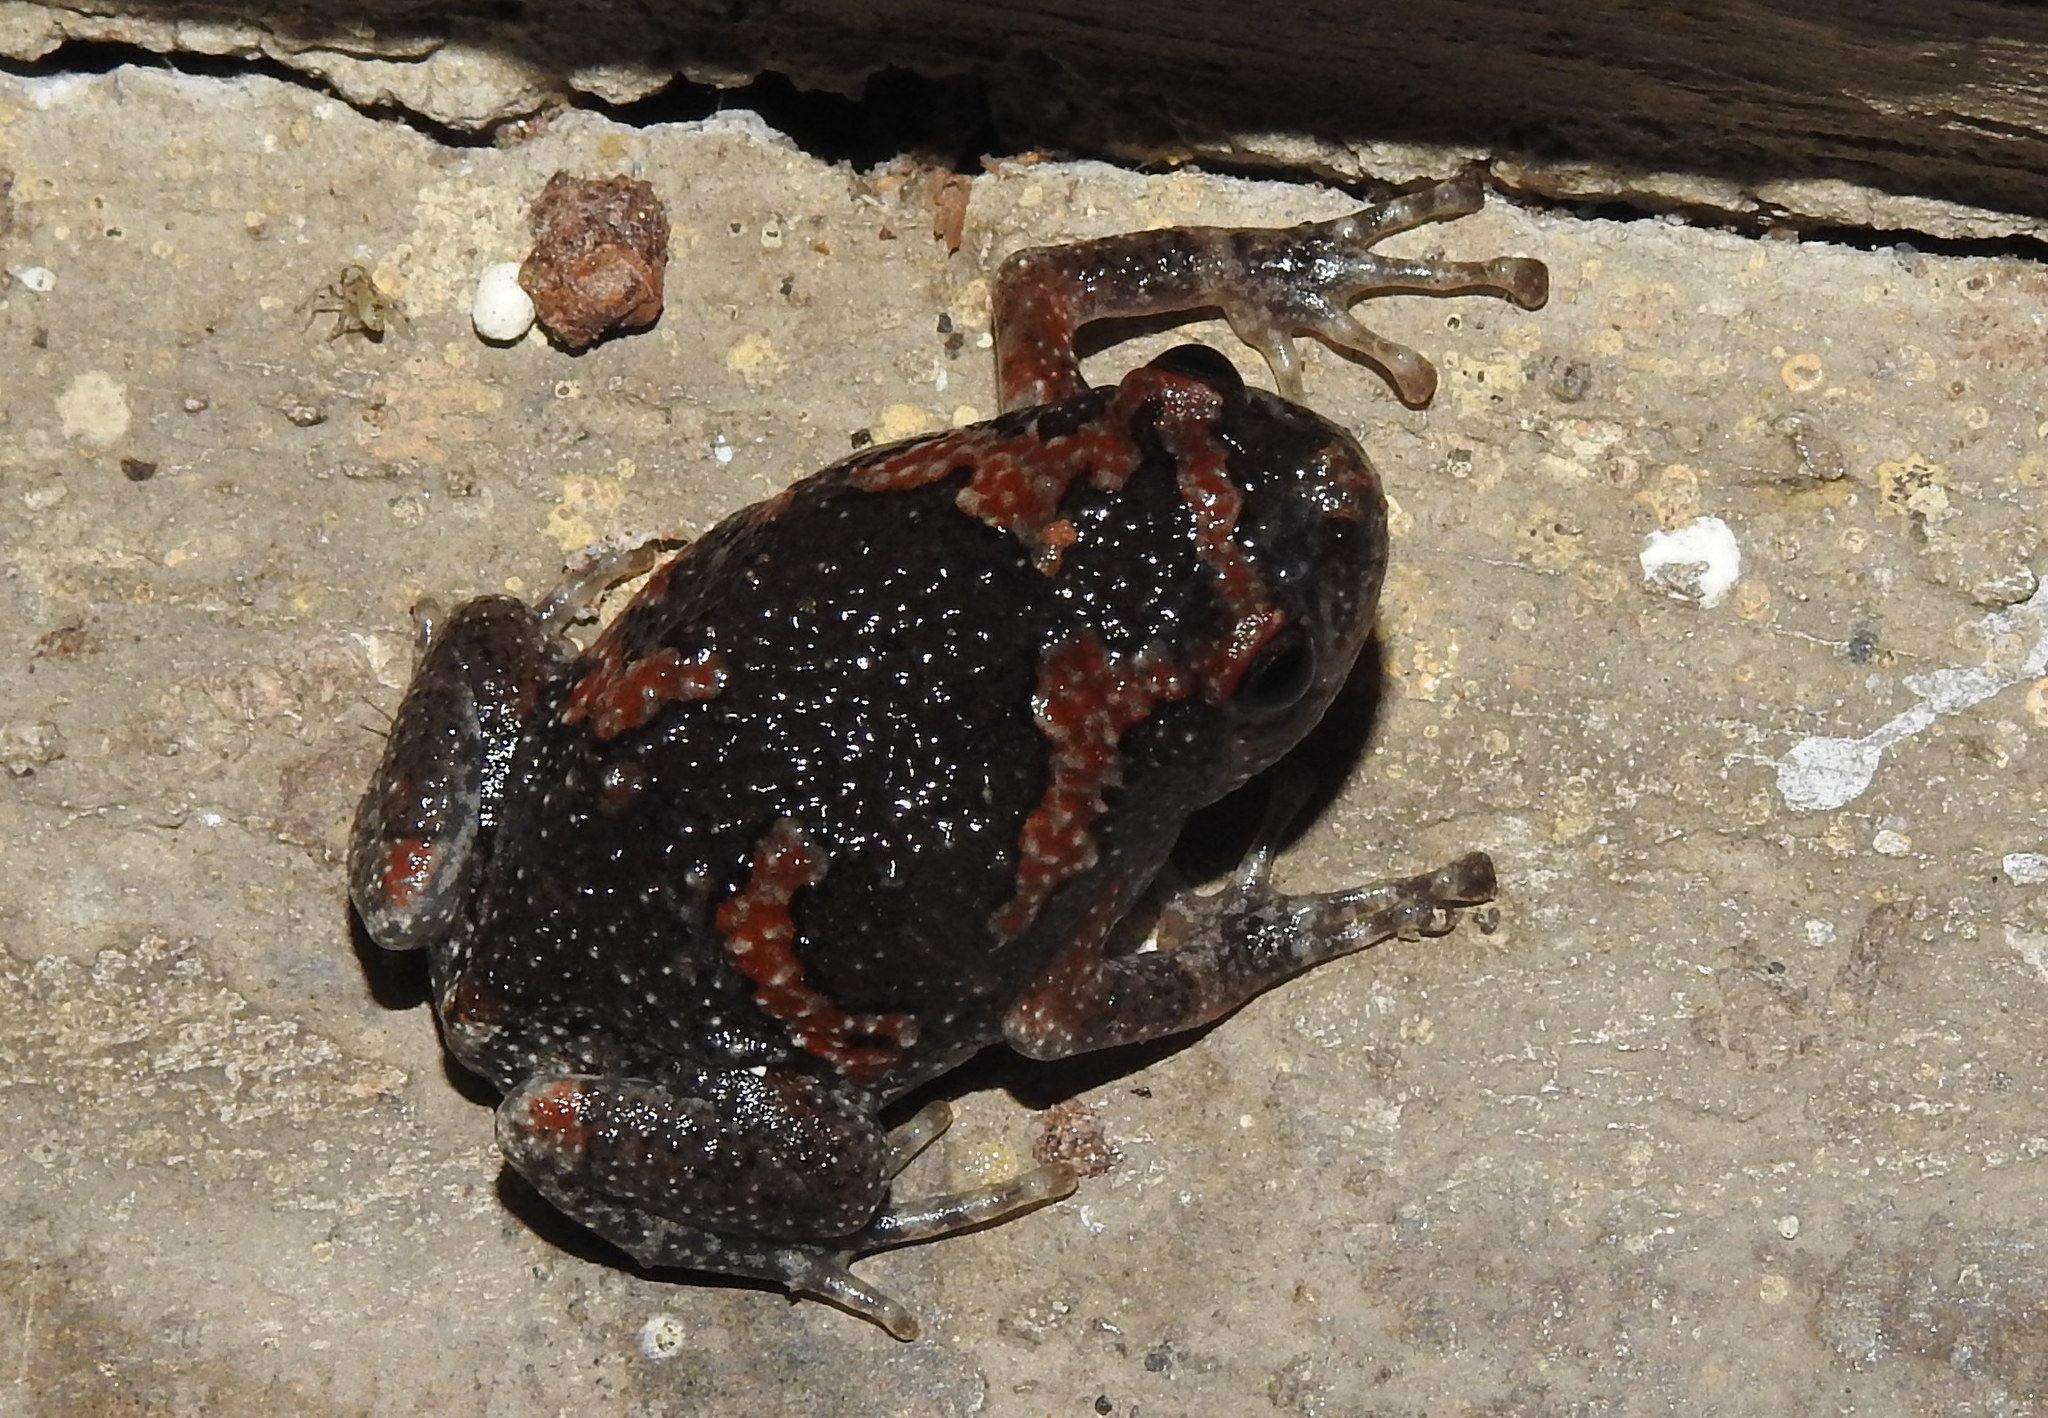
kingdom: Animalia
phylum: Chordata
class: Amphibia
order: Anura
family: Microhylidae
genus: Uperodon
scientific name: Uperodon taprobanicus
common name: Ceylon kaloula
